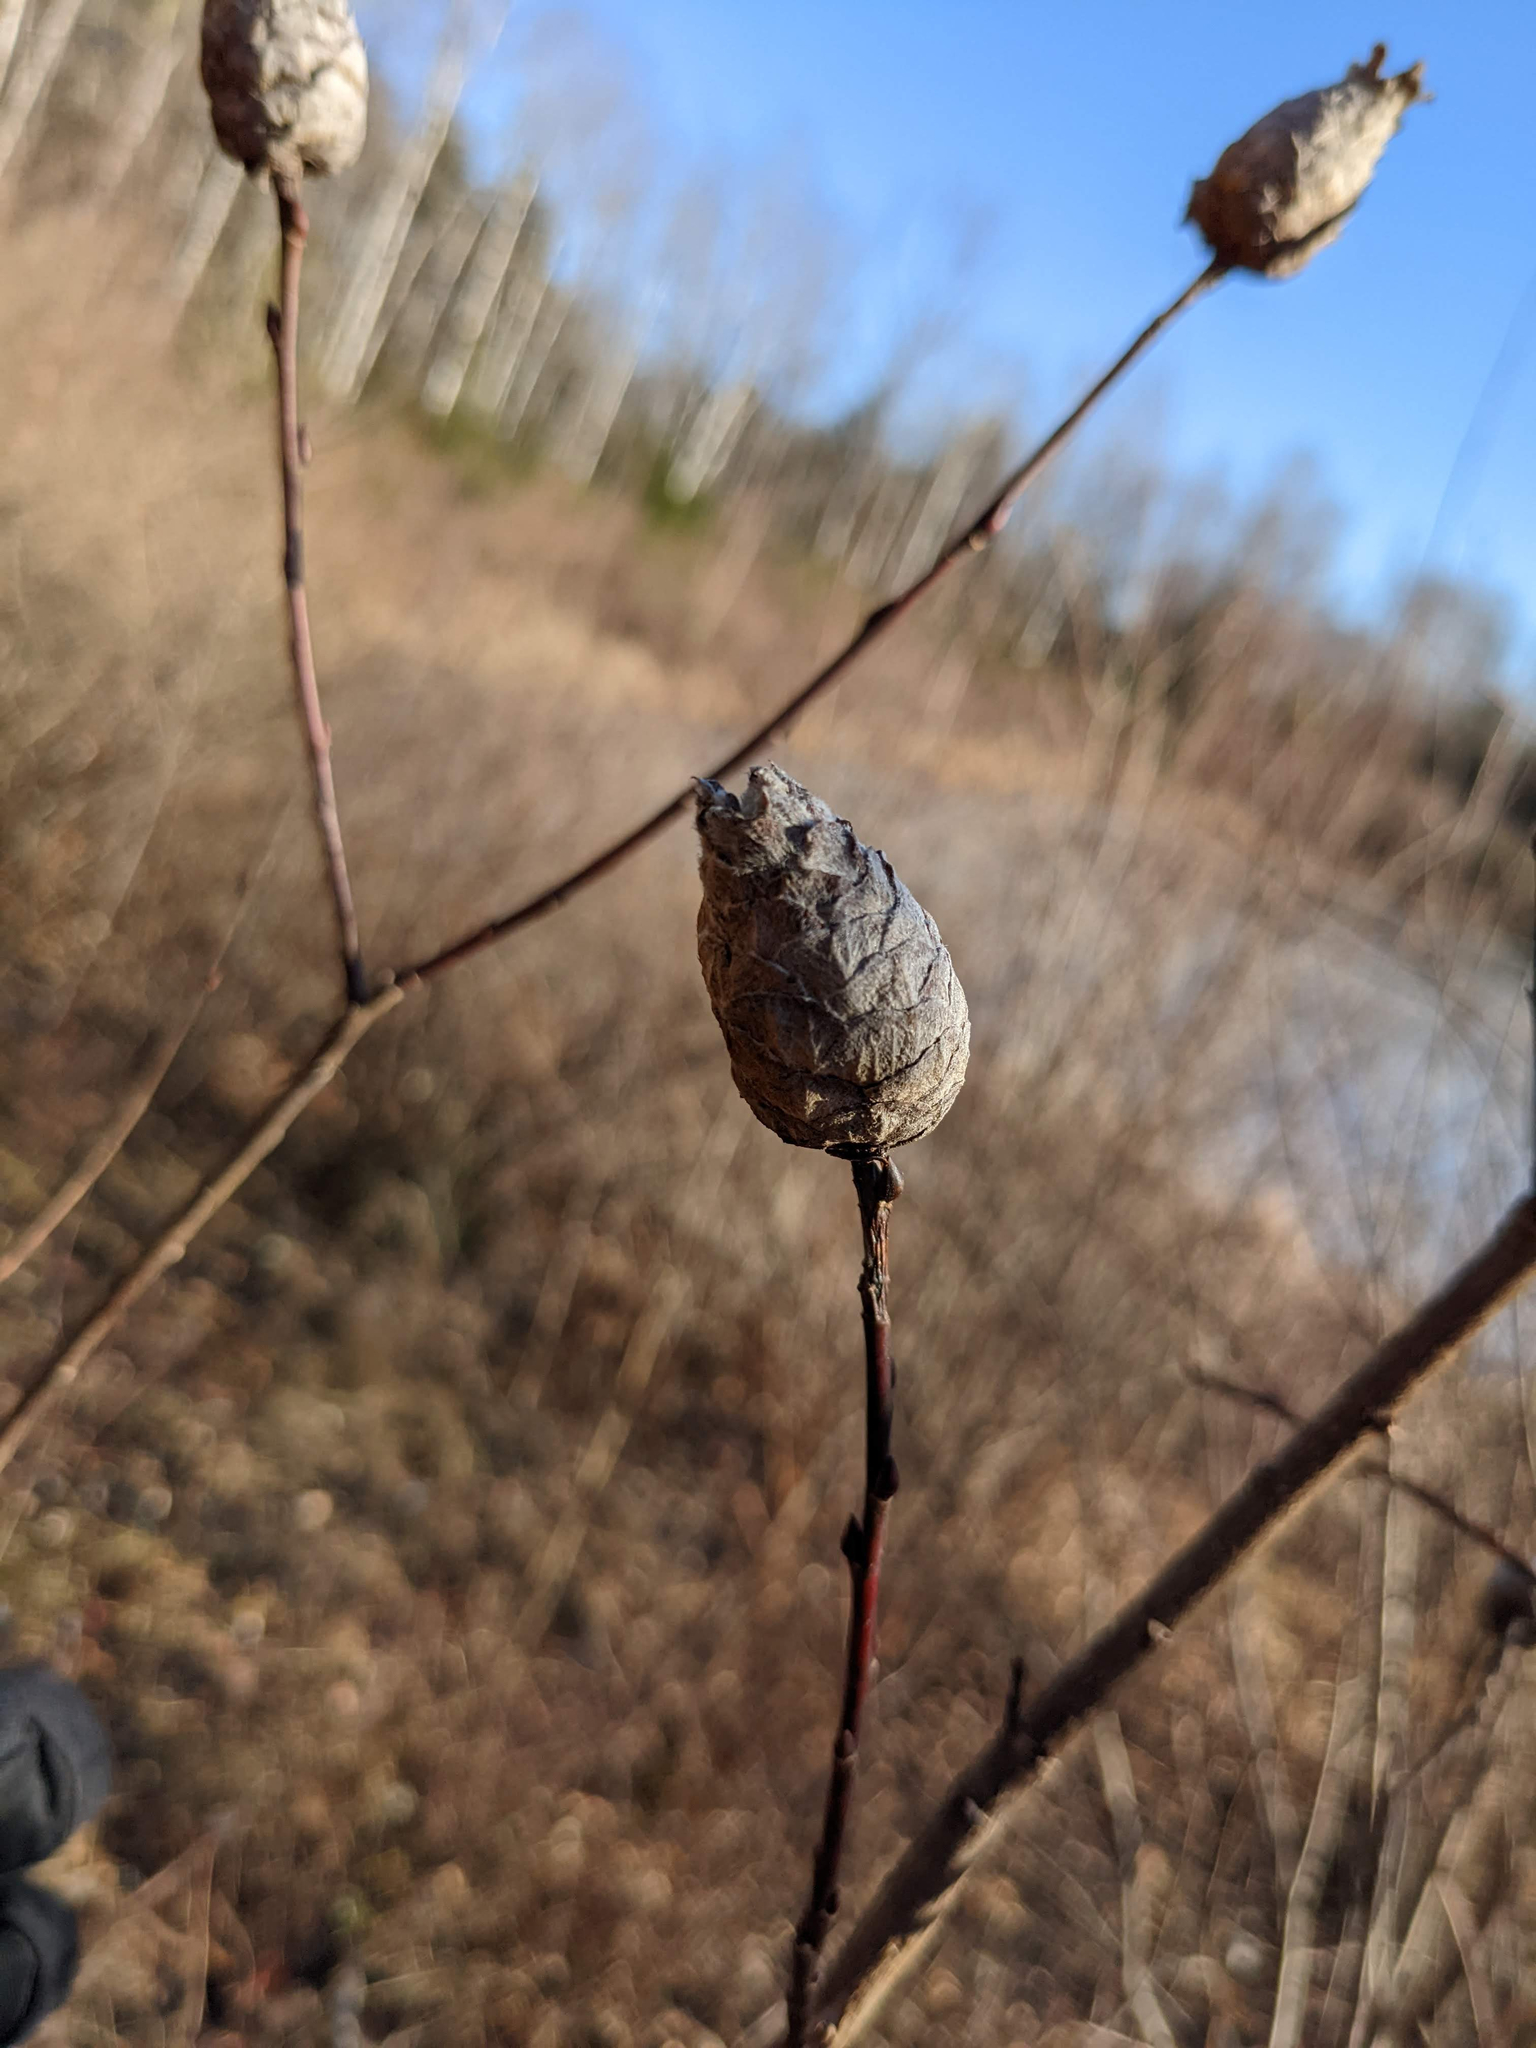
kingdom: Animalia
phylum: Arthropoda
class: Insecta
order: Diptera
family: Cecidomyiidae
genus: Rabdophaga
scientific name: Rabdophaga strobiloides
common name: Willow pinecone gall midge
